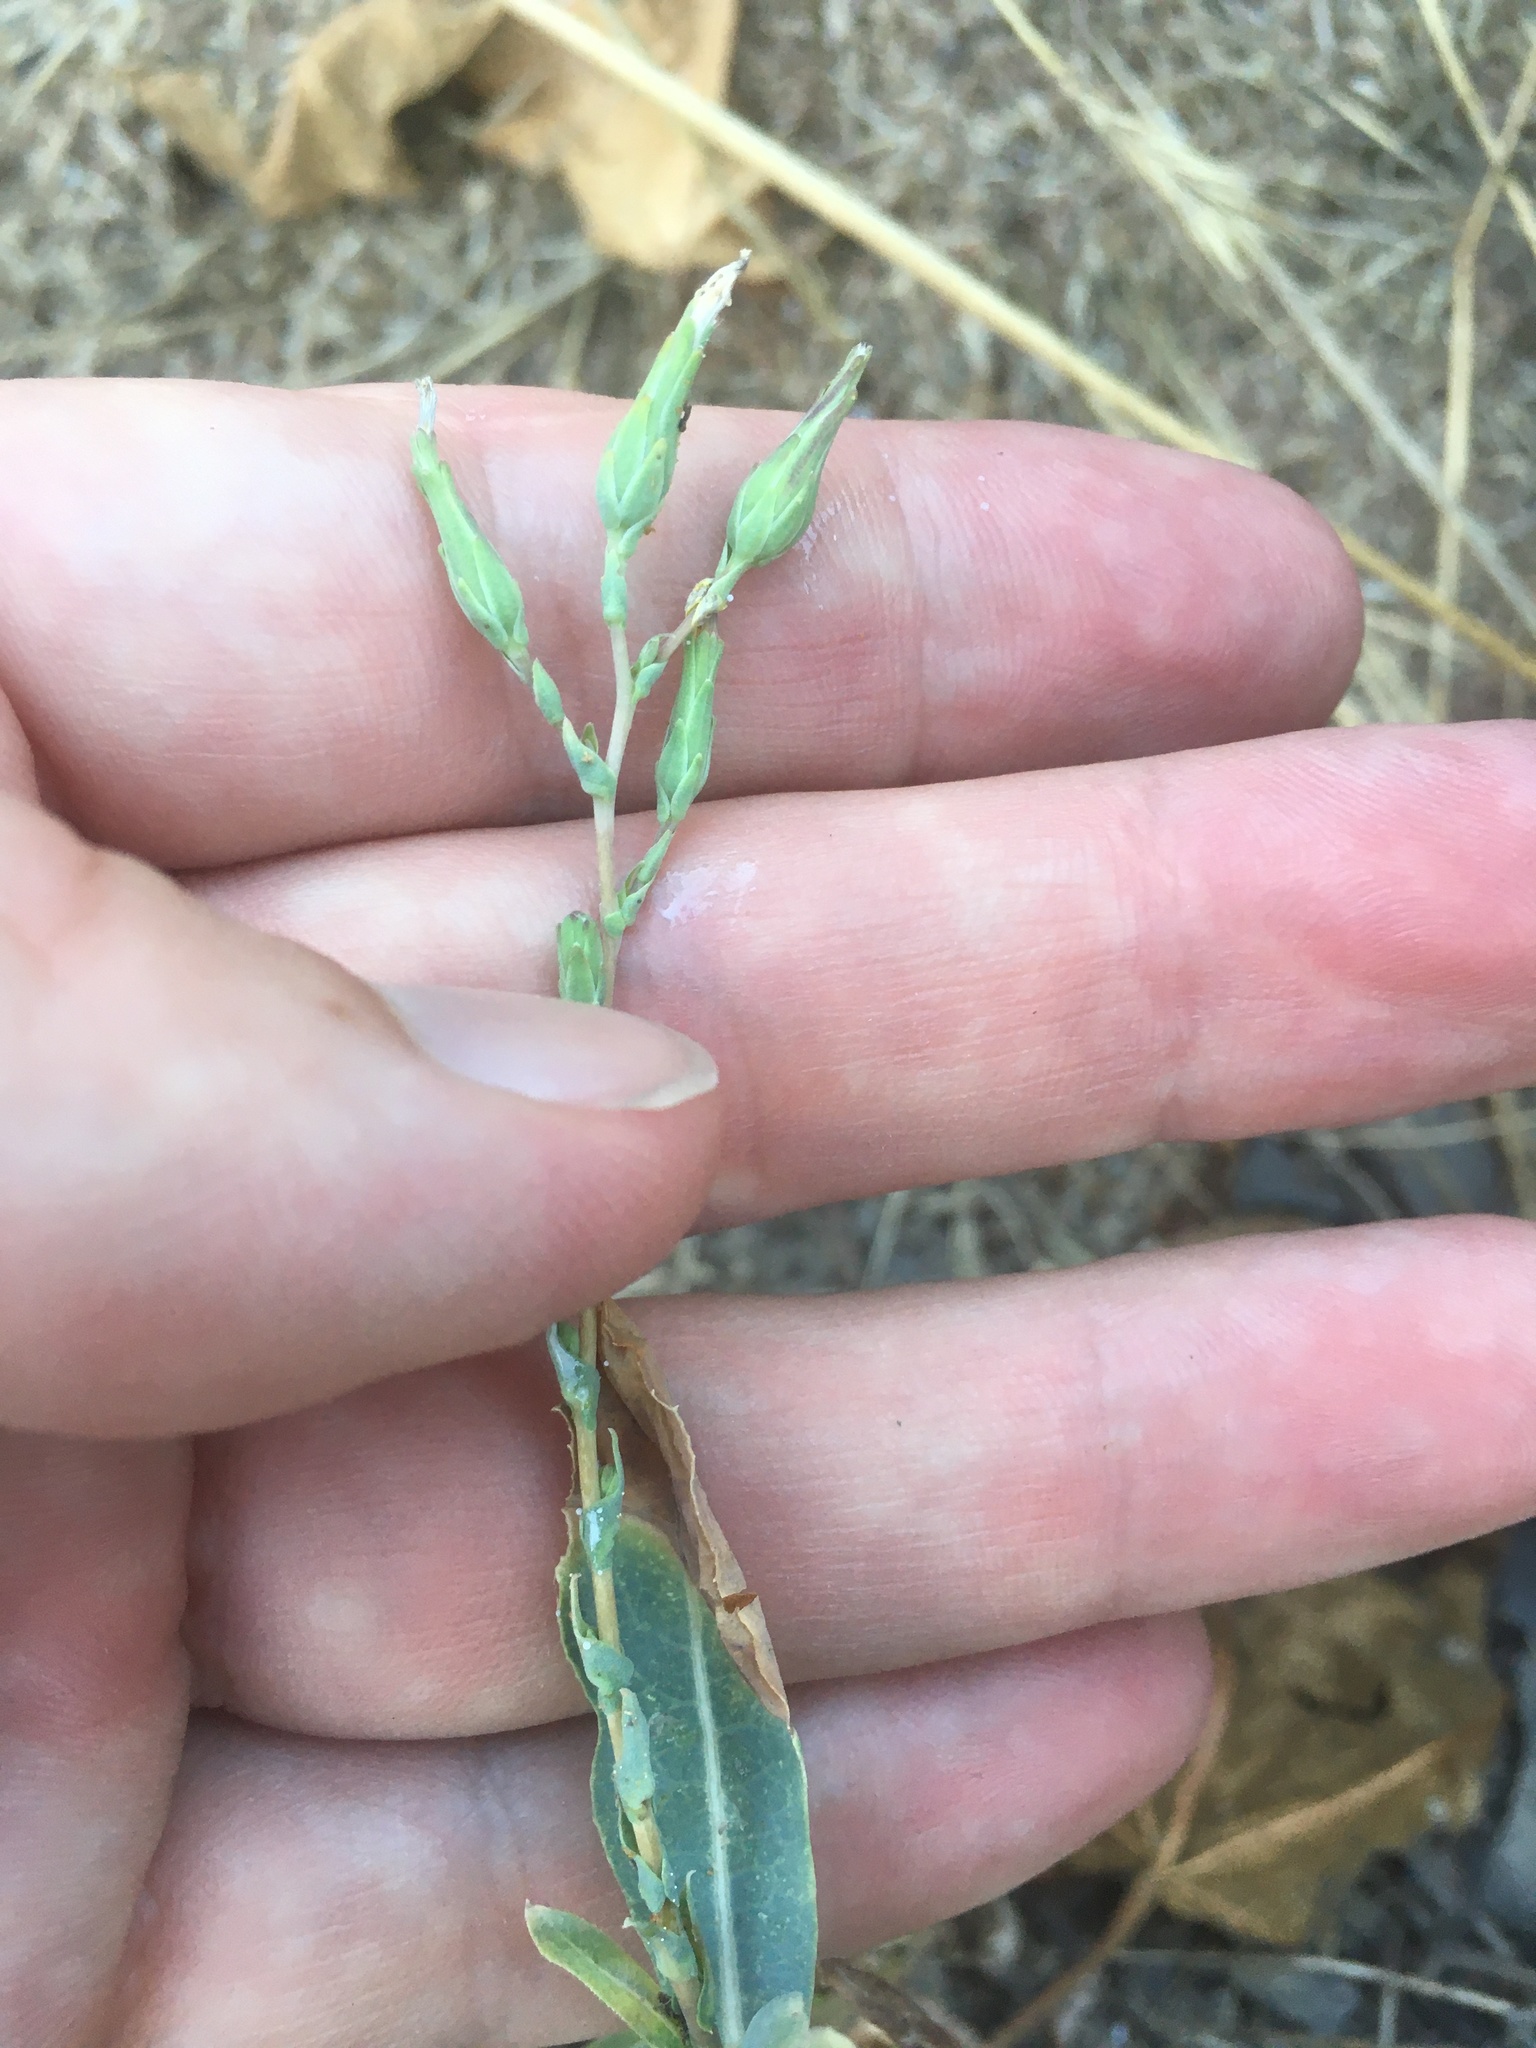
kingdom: Plantae
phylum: Tracheophyta
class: Magnoliopsida
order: Asterales
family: Asteraceae
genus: Lactuca
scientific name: Lactuca serriola
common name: Prickly lettuce
